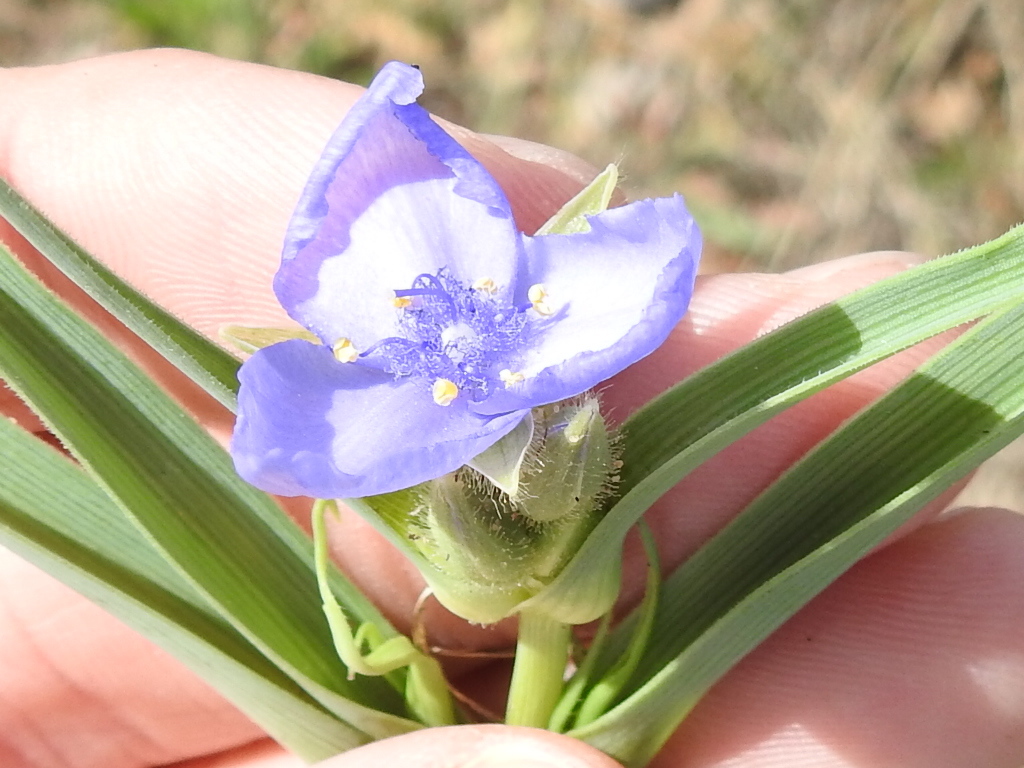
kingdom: Plantae
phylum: Tracheophyta
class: Liliopsida
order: Commelinales
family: Commelinaceae
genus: Tradescantia
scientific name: Tradescantia occidentalis
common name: Prairie spiderwort
